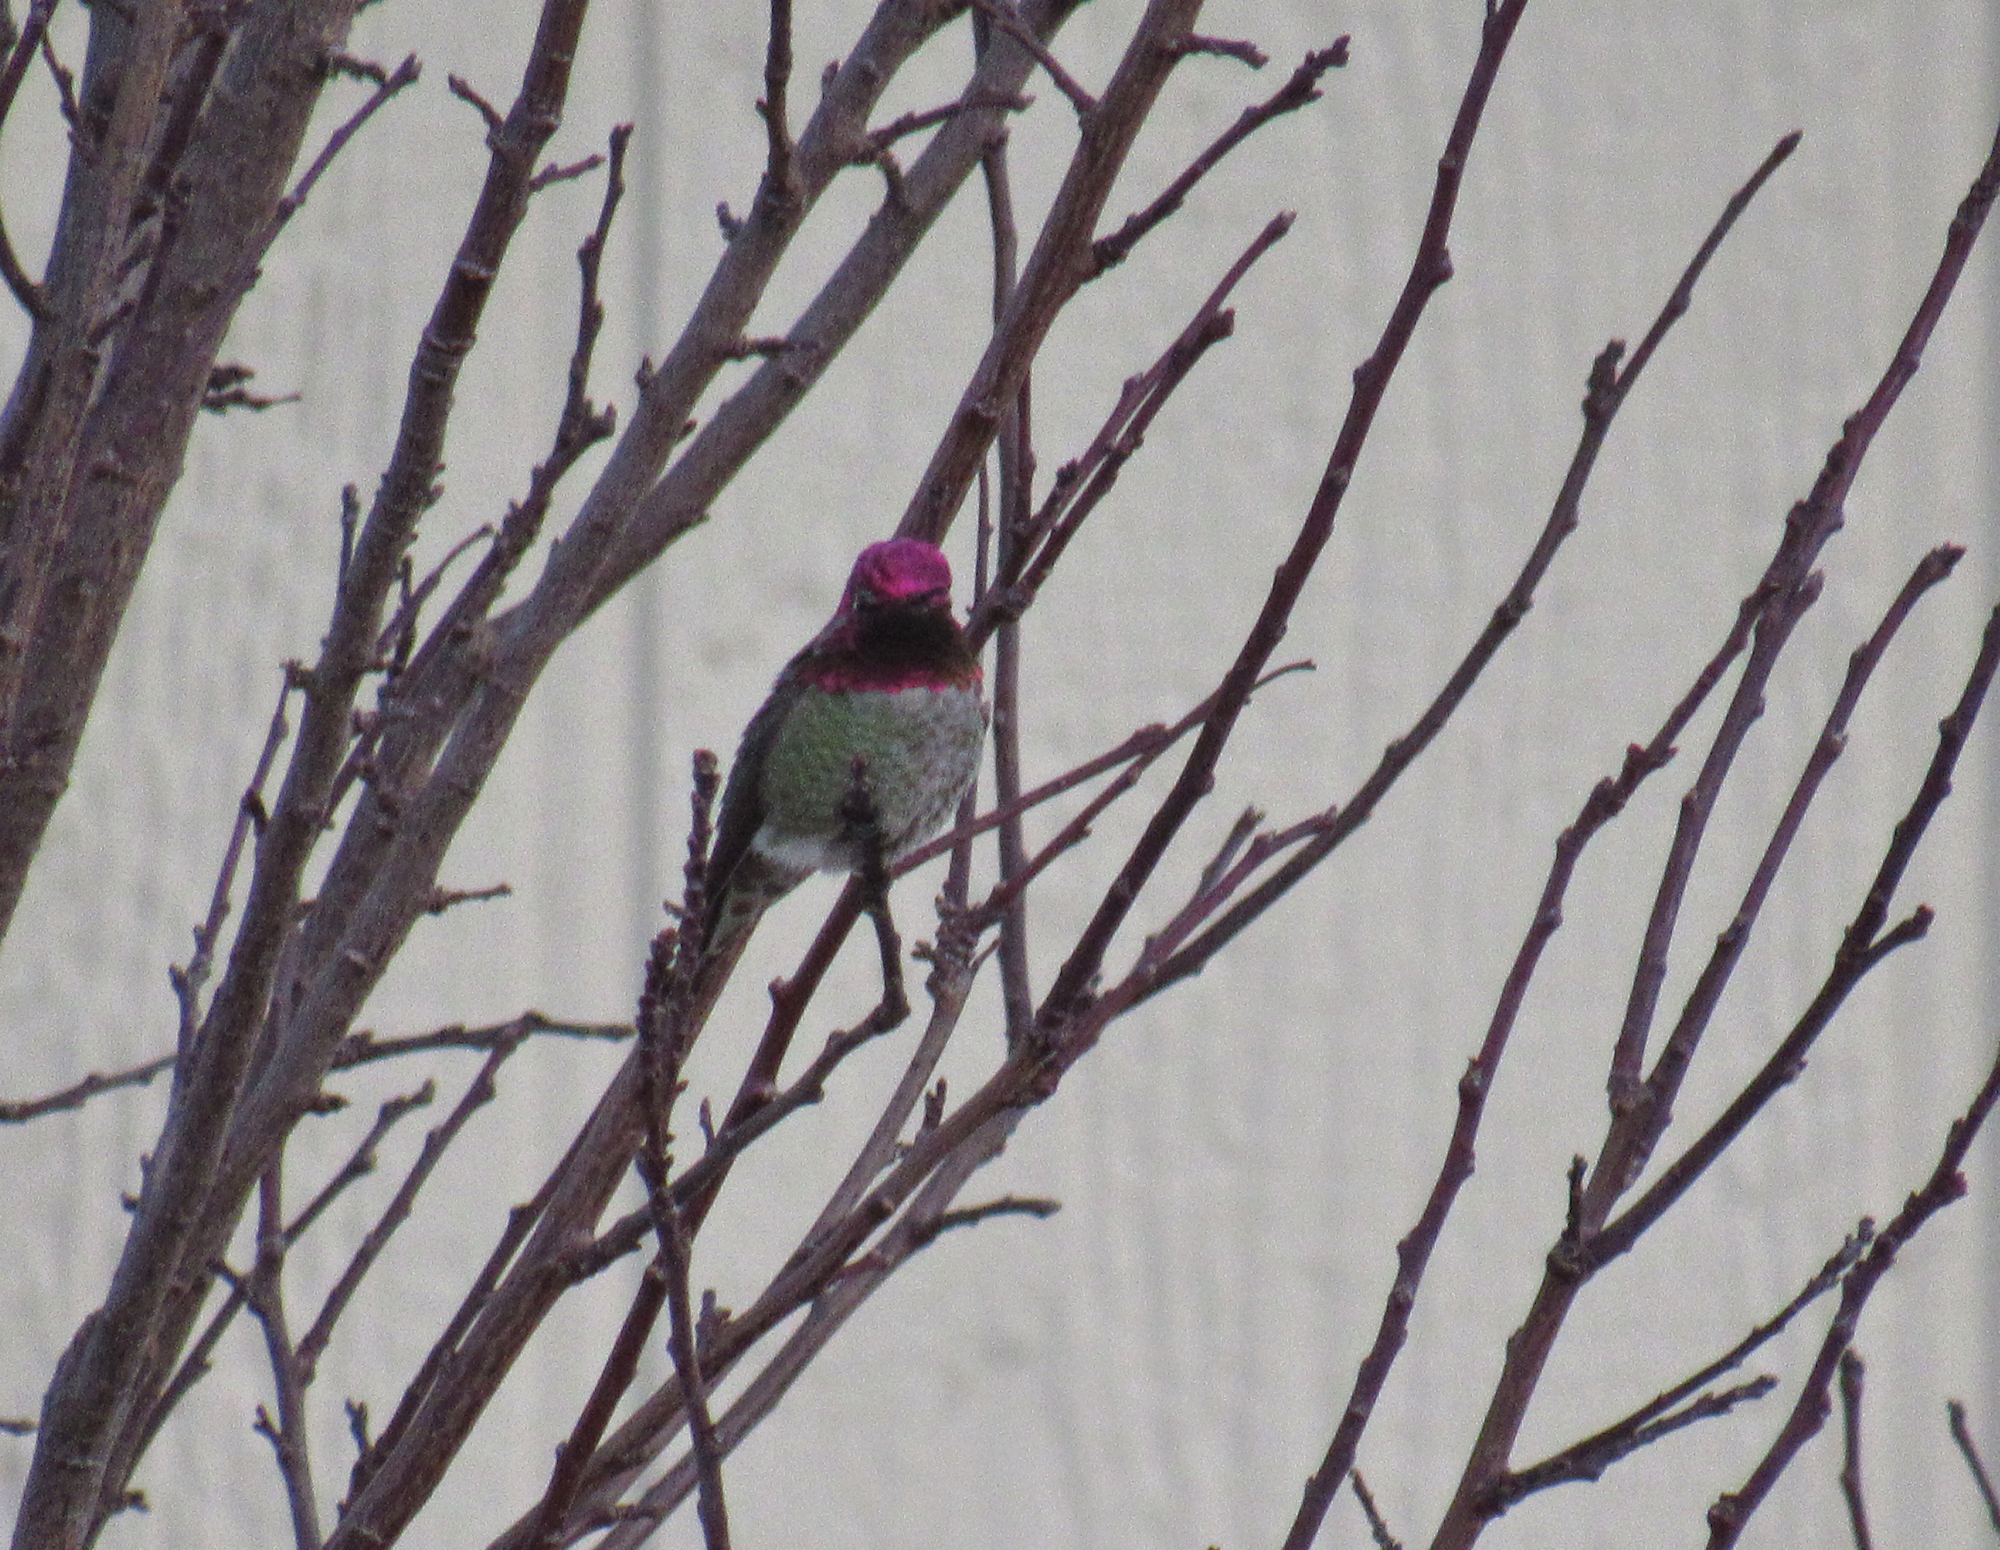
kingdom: Animalia
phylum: Chordata
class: Aves
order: Apodiformes
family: Trochilidae
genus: Calypte
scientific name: Calypte anna
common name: Anna's hummingbird
